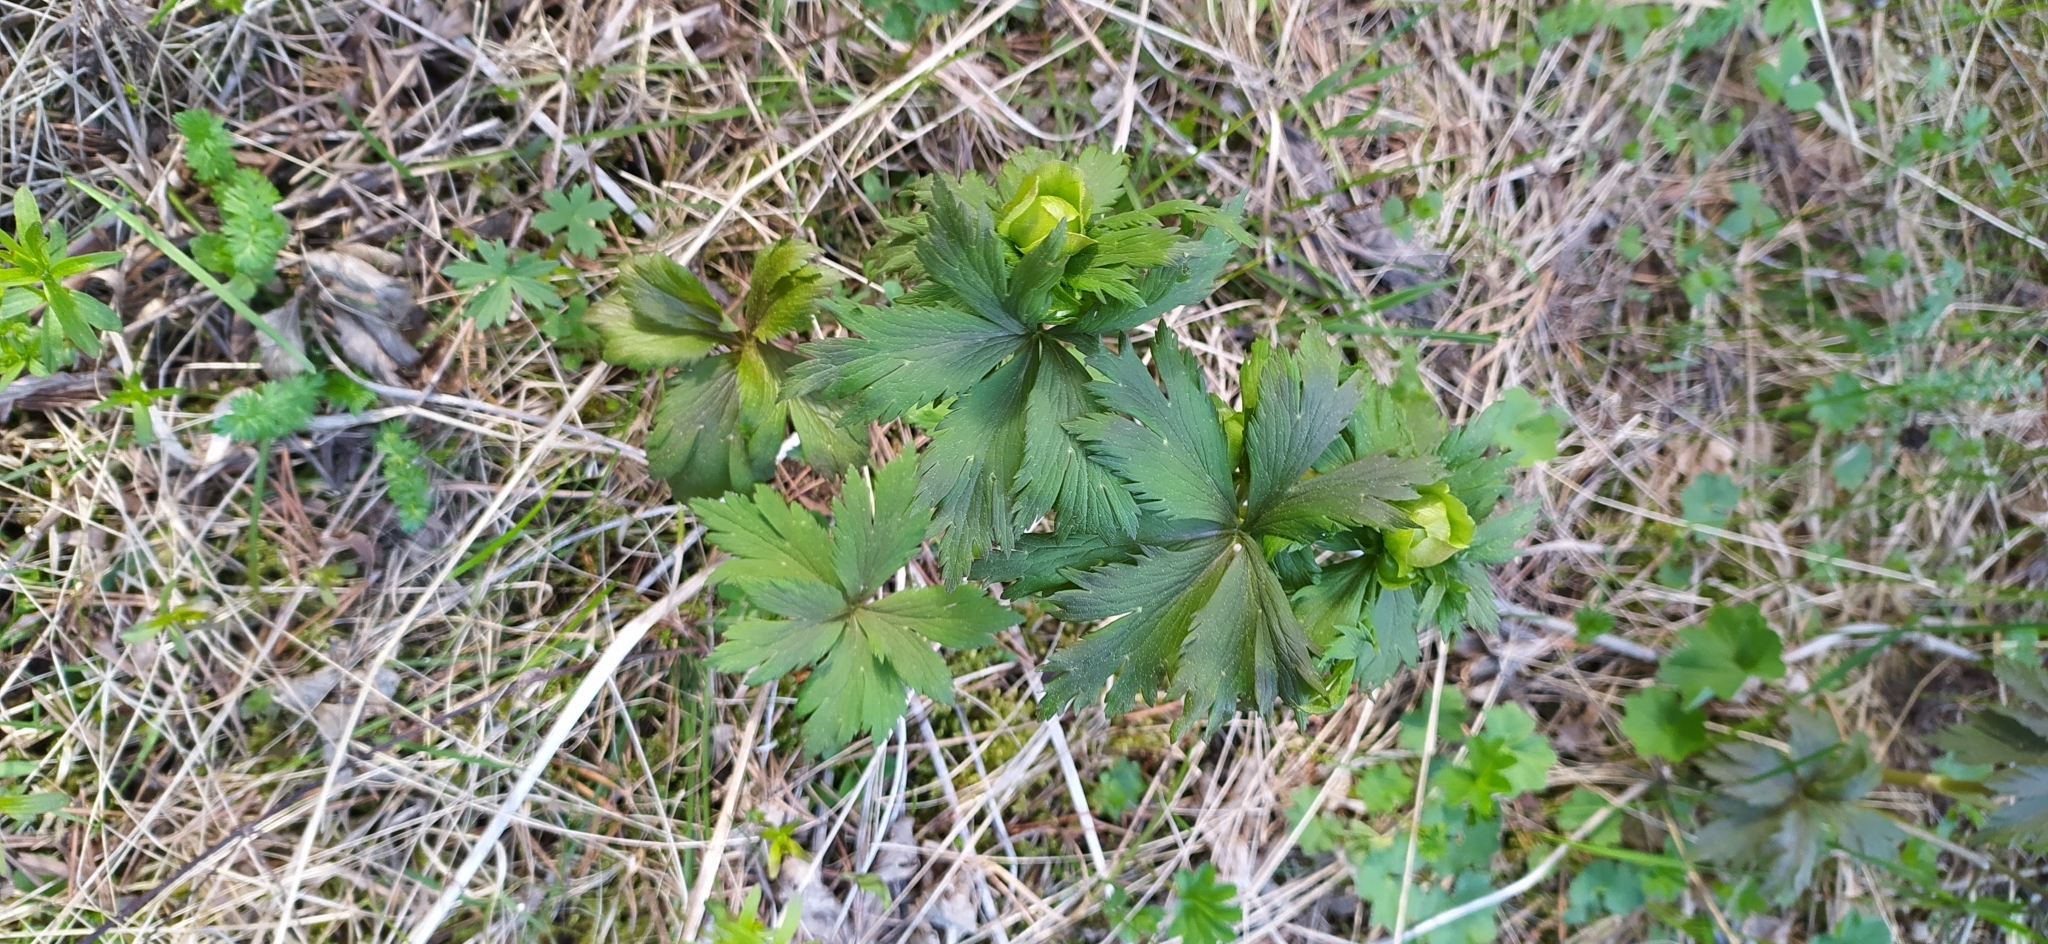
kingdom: Plantae
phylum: Tracheophyta
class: Magnoliopsida
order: Ranunculales
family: Ranunculaceae
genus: Trollius
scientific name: Trollius europaeus
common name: European globeflower
